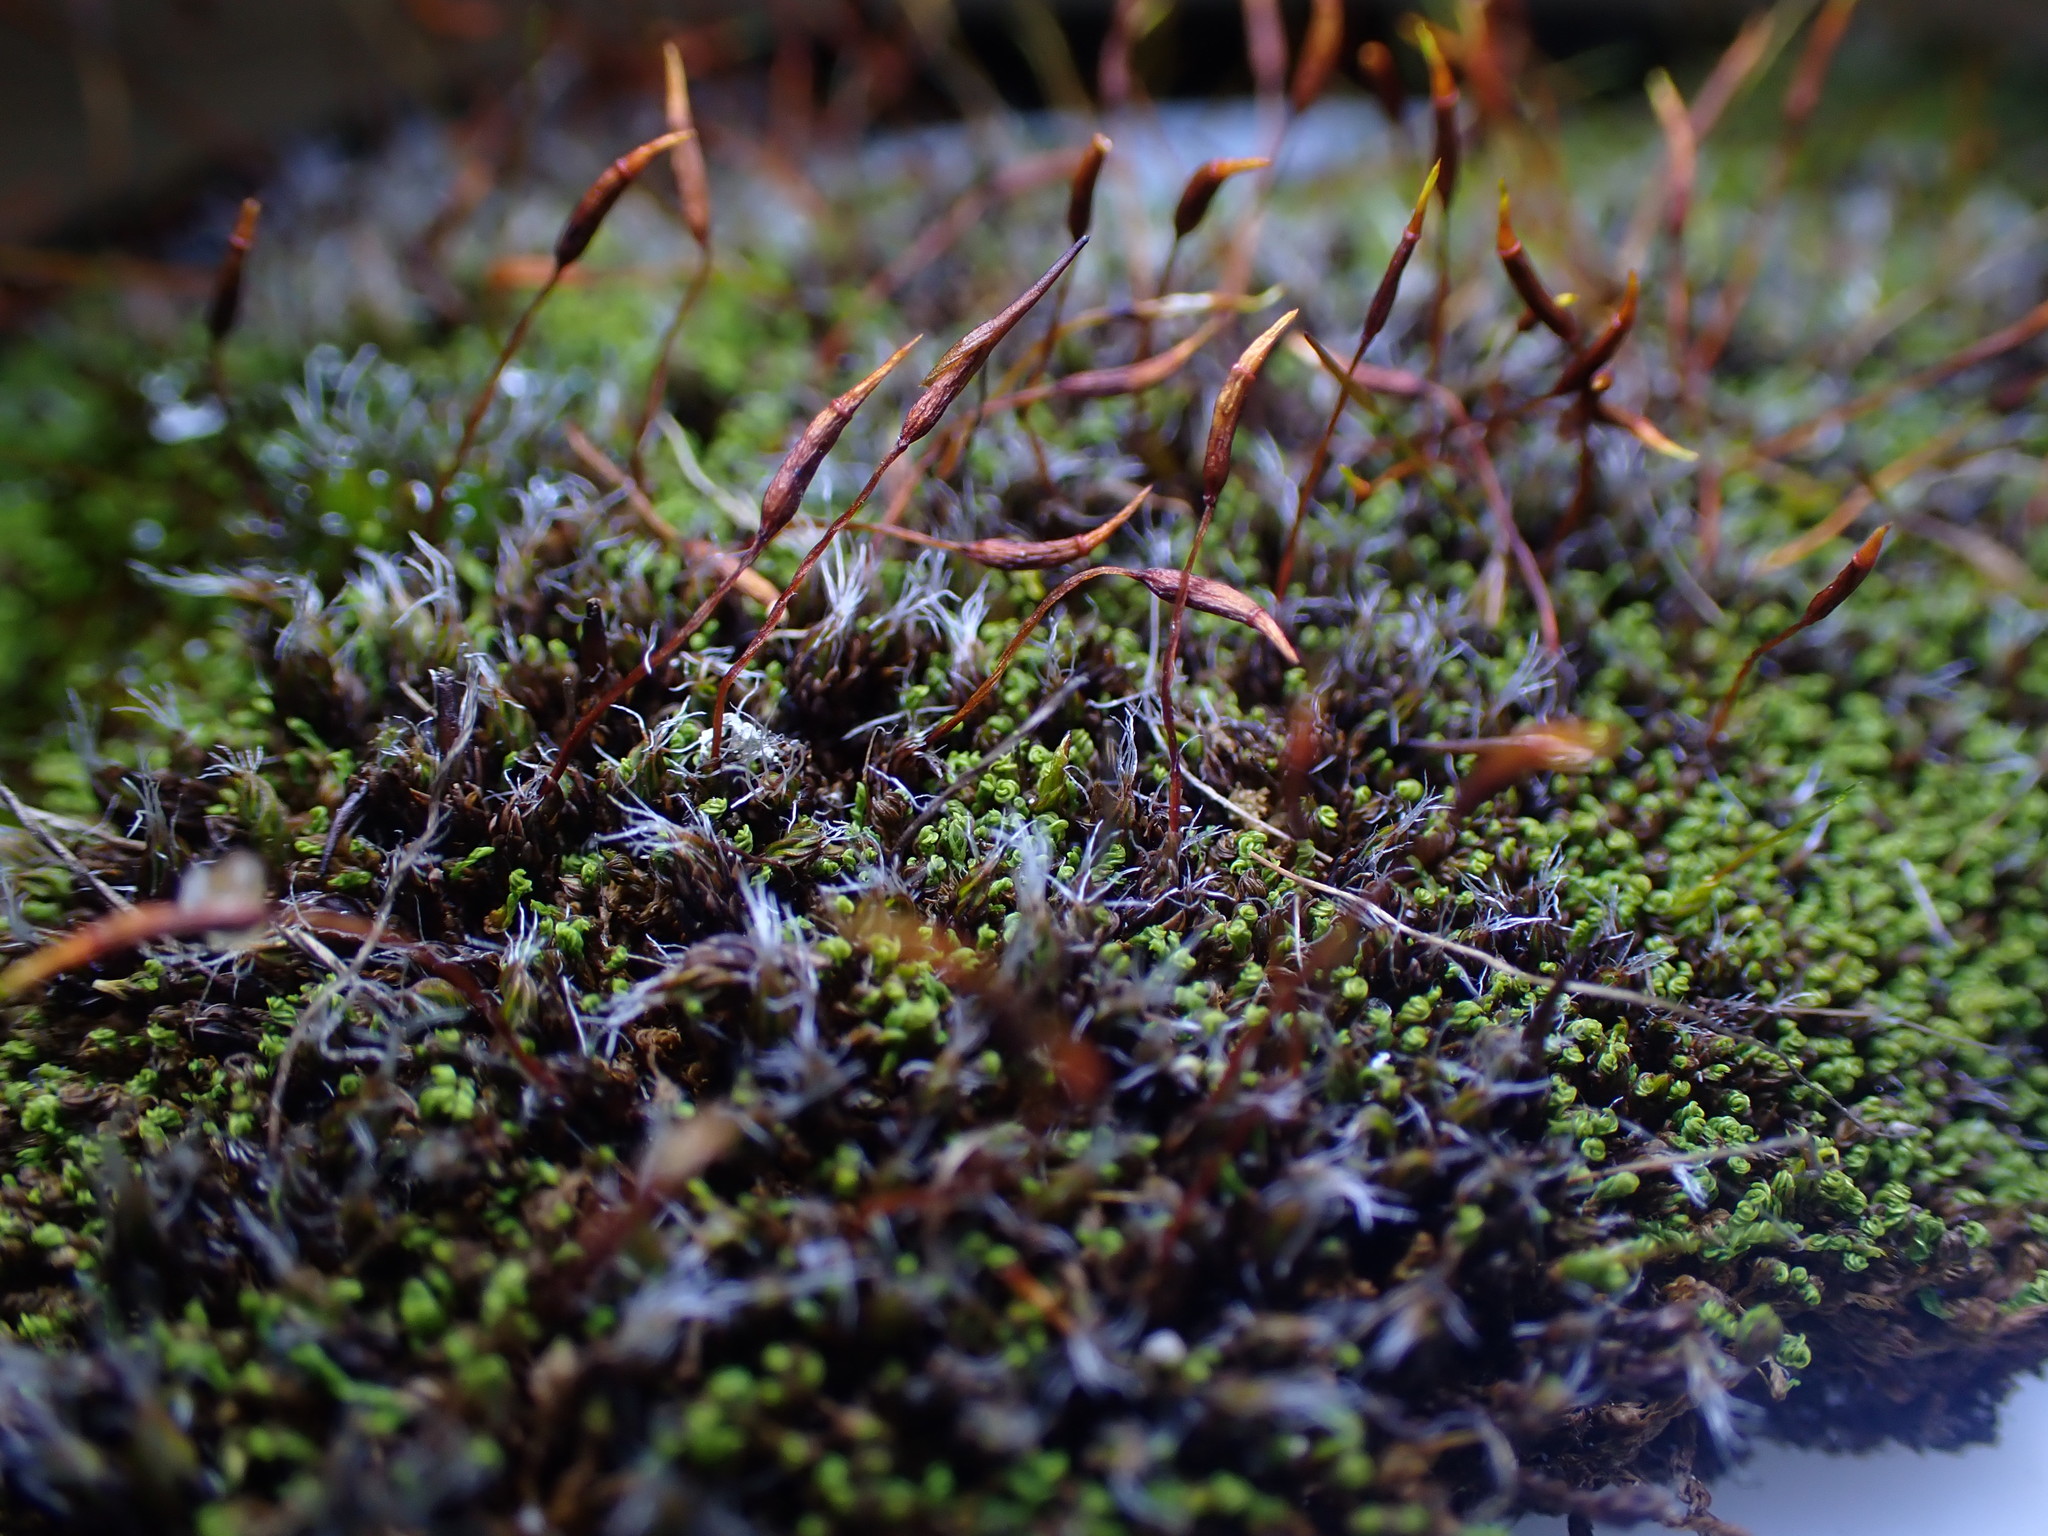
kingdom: Plantae
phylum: Bryophyta
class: Bryopsida
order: Pottiales
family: Pottiaceae
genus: Syntrichia
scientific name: Syntrichia montana
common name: Intermediate screw-moss
